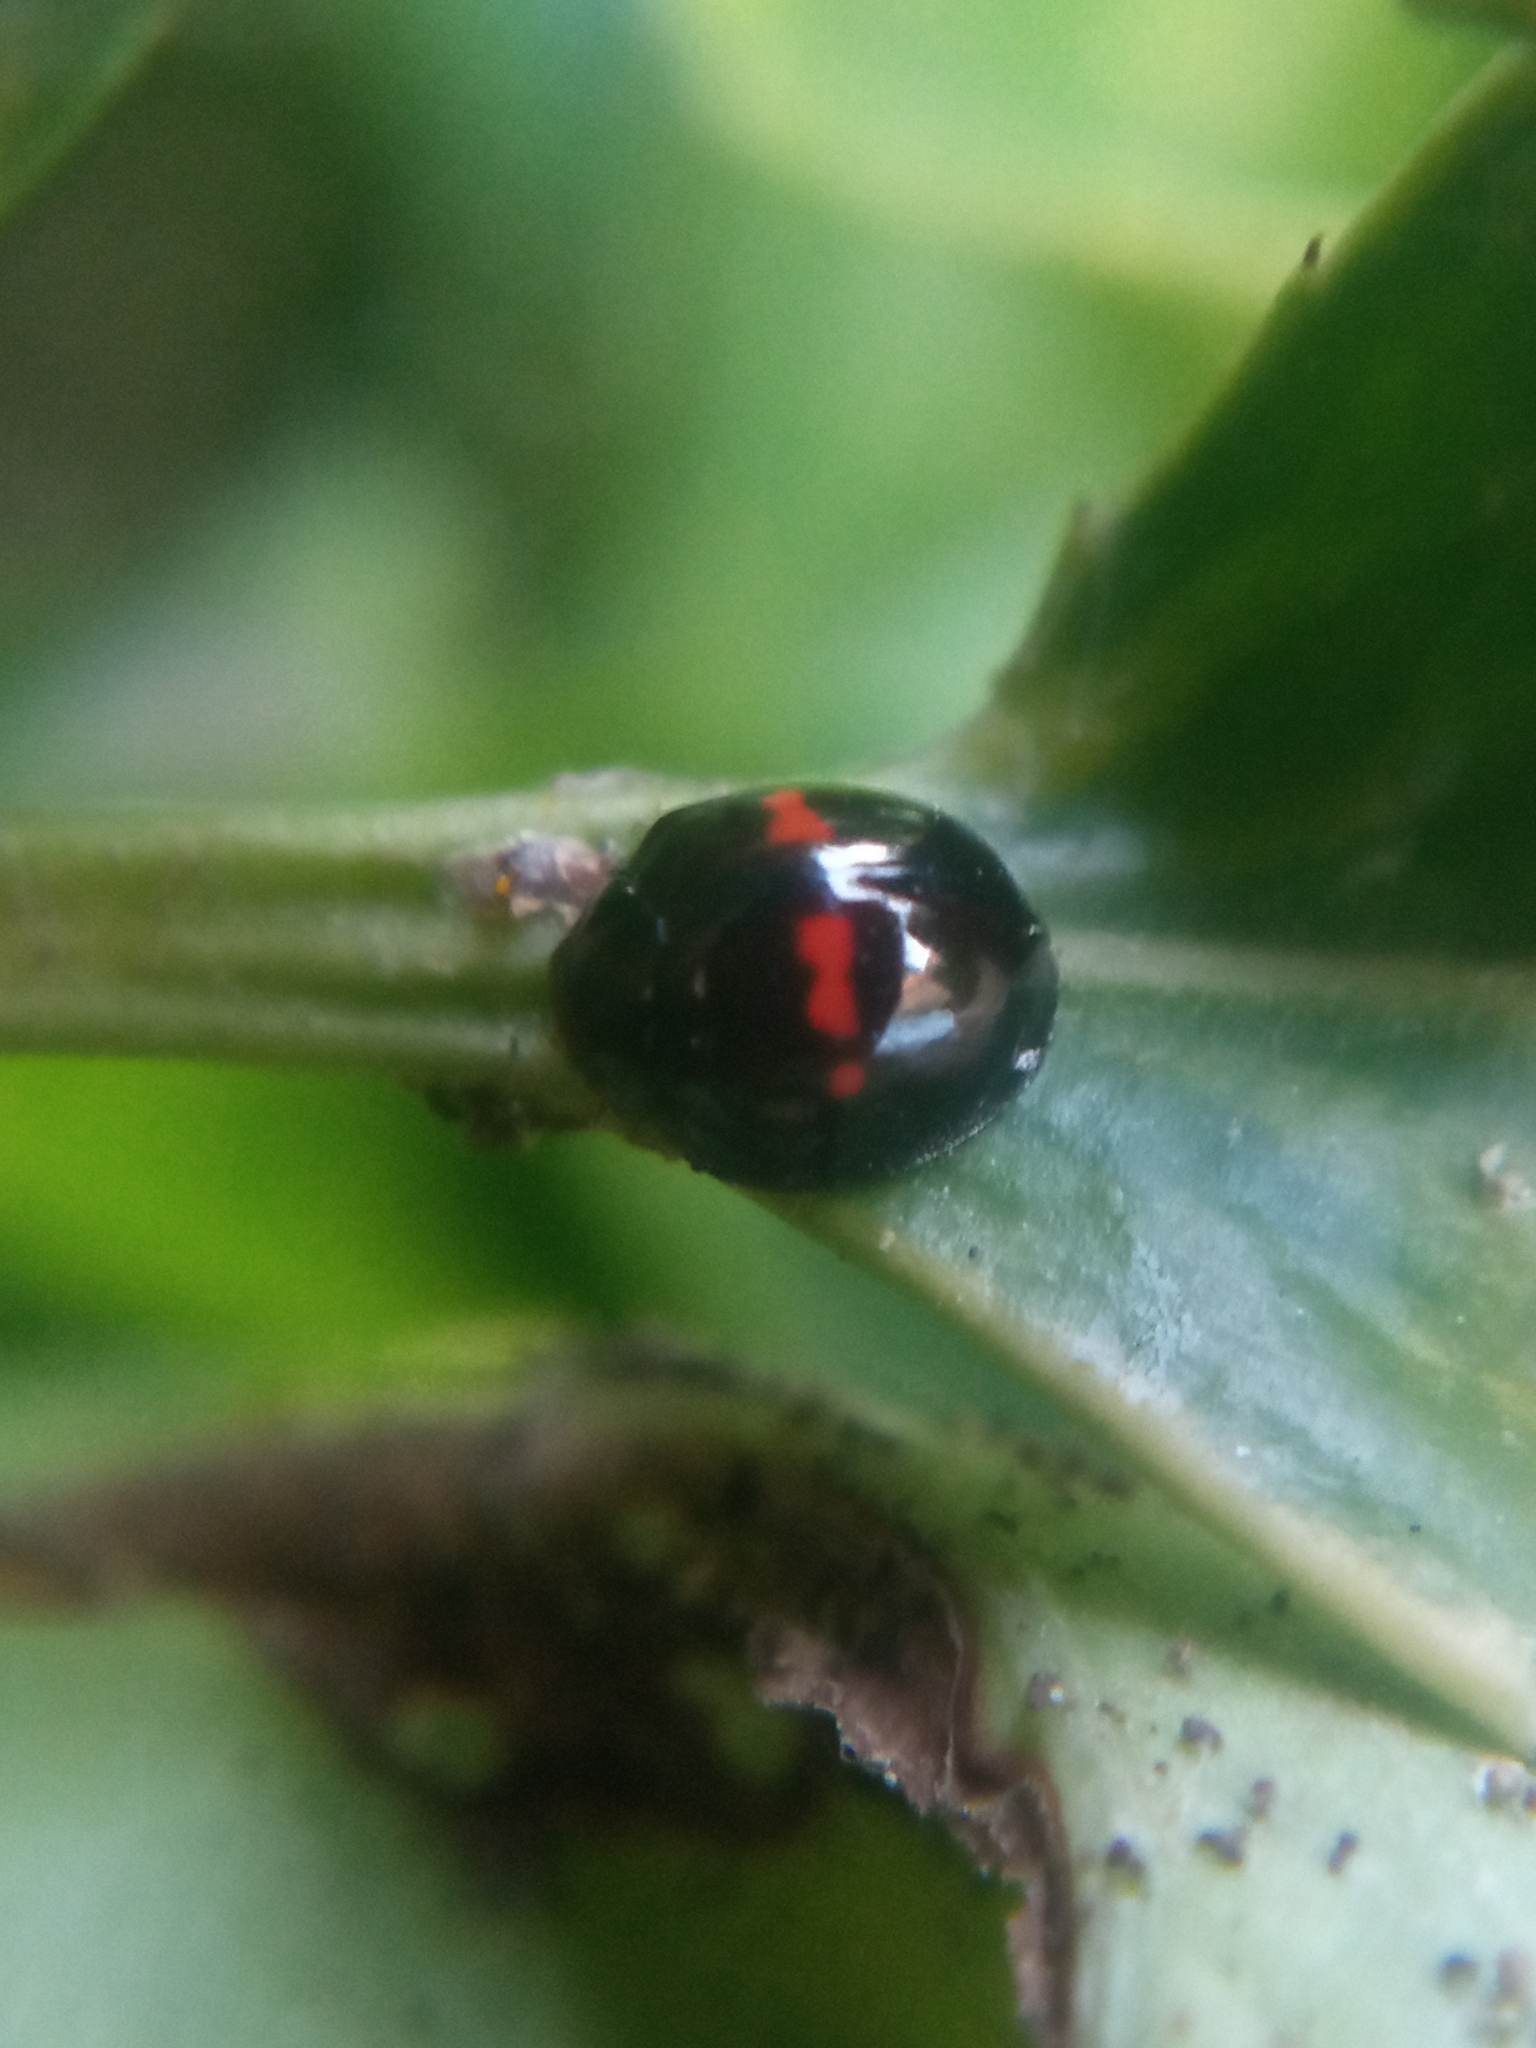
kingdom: Animalia
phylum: Arthropoda
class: Insecta
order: Coleoptera
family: Coccinellidae
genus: Chilocorus
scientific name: Chilocorus bipustulatus
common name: Heather ladybird
